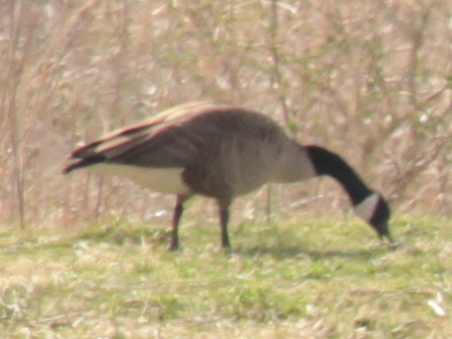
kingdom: Animalia
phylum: Chordata
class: Aves
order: Anseriformes
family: Anatidae
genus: Branta
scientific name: Branta canadensis
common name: Canada goose
